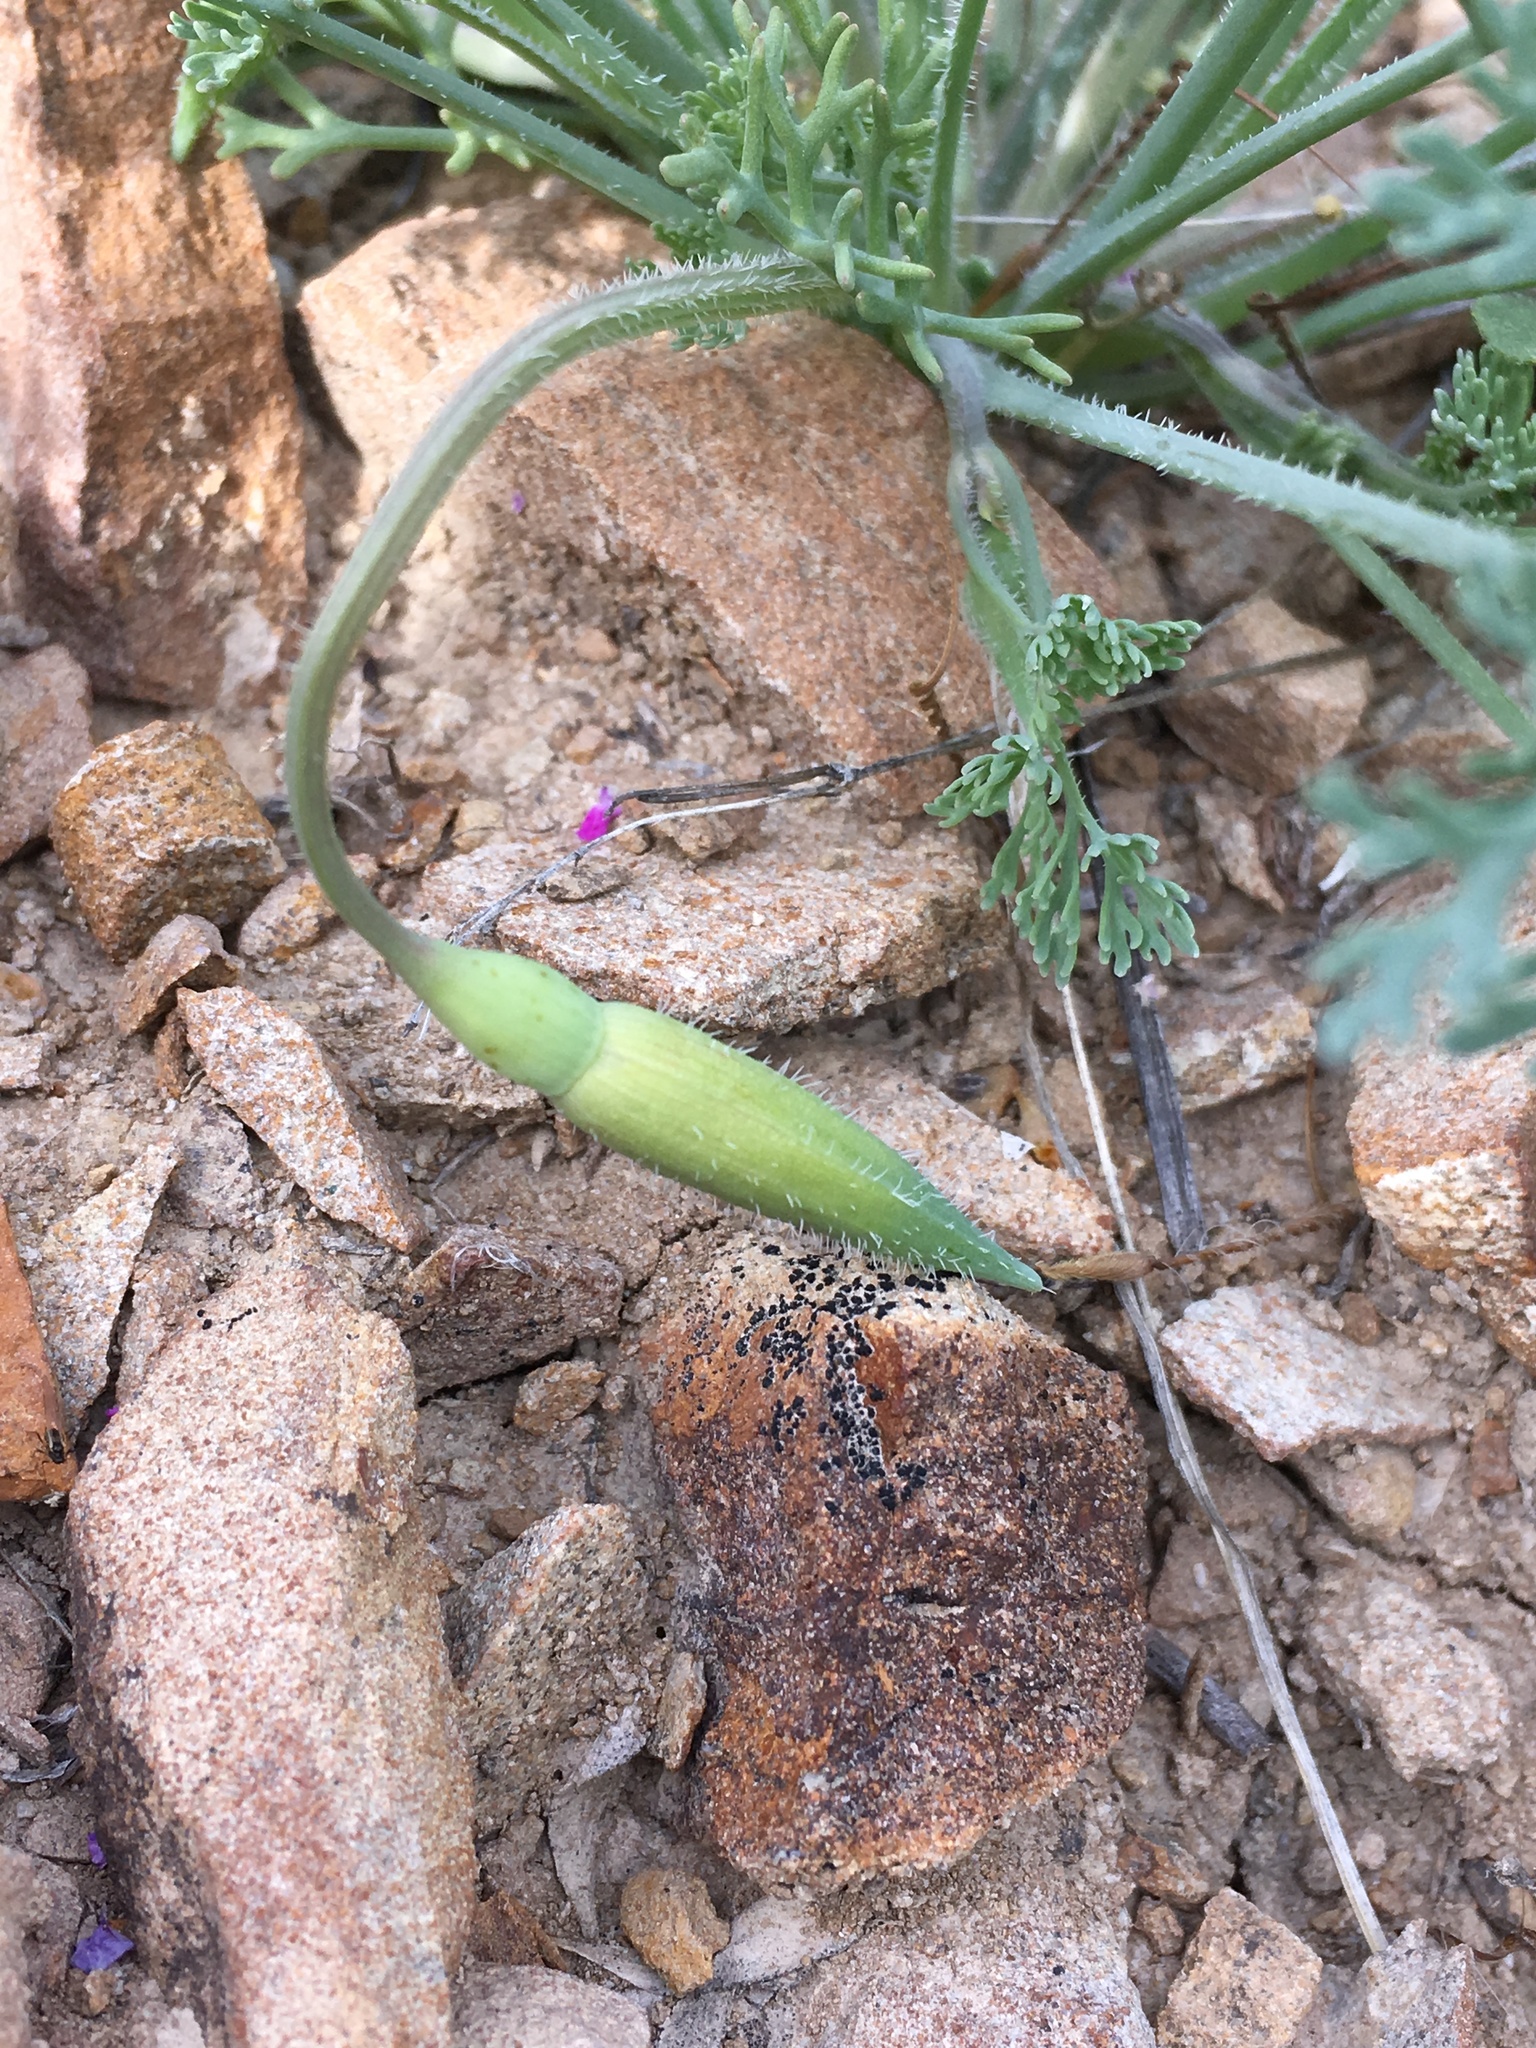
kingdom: Plantae
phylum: Tracheophyta
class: Magnoliopsida
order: Ranunculales
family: Papaveraceae
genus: Eschscholzia
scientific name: Eschscholzia hypecoides
